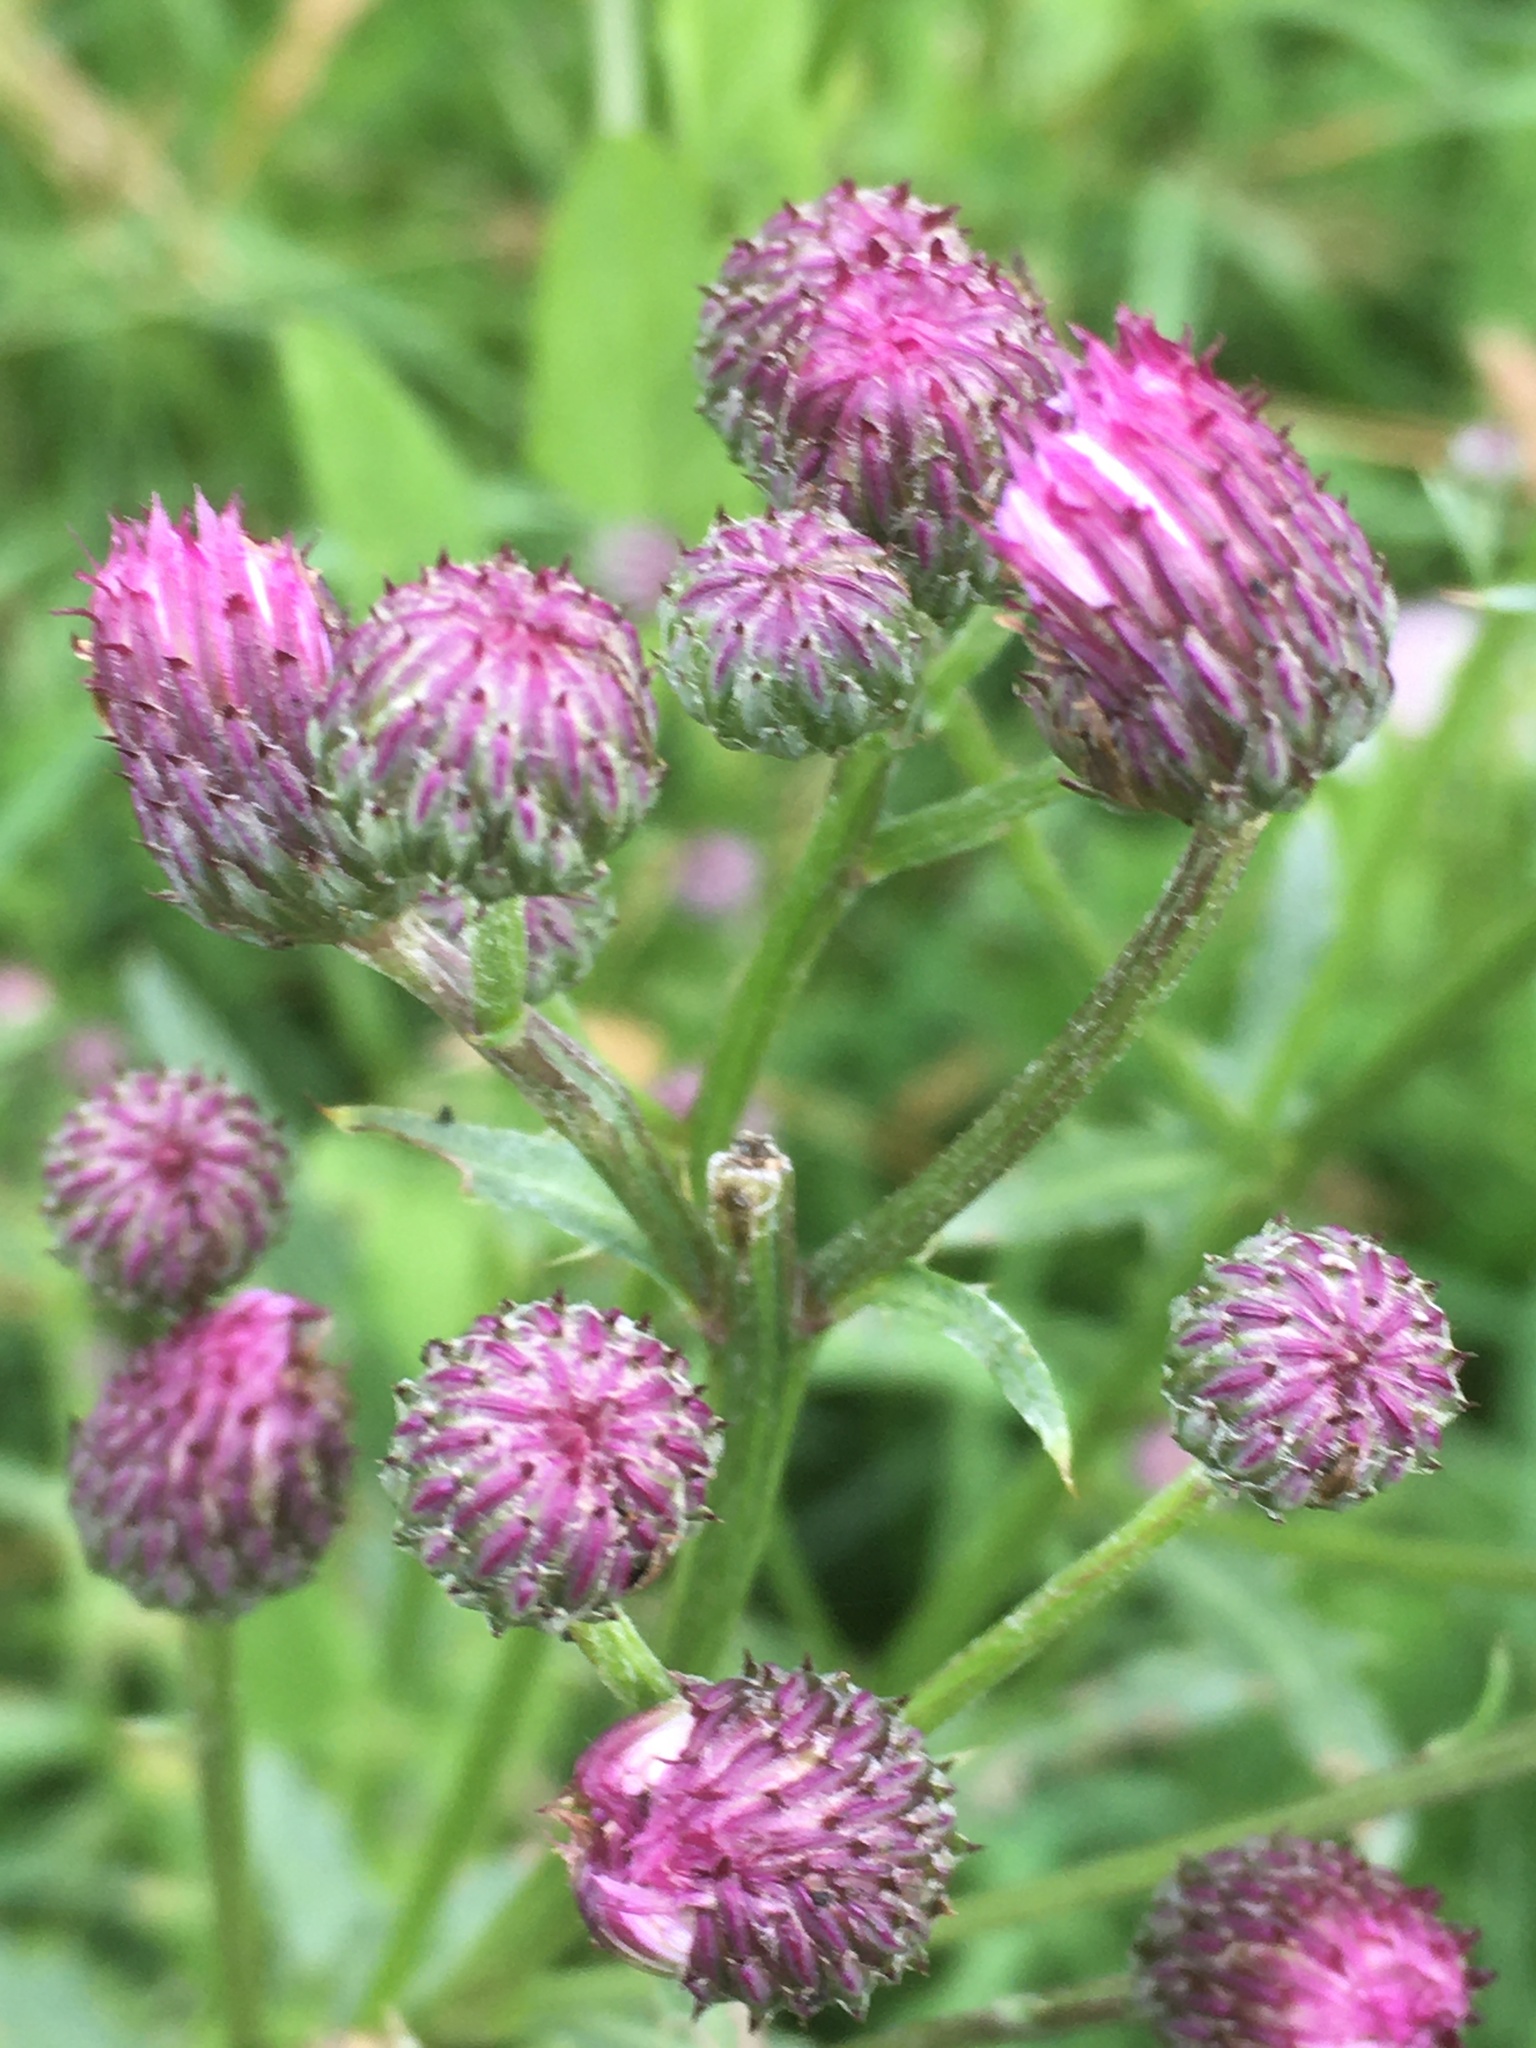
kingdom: Plantae
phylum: Tracheophyta
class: Magnoliopsida
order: Asterales
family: Asteraceae
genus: Cirsium
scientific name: Cirsium arvense
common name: Creeping thistle
